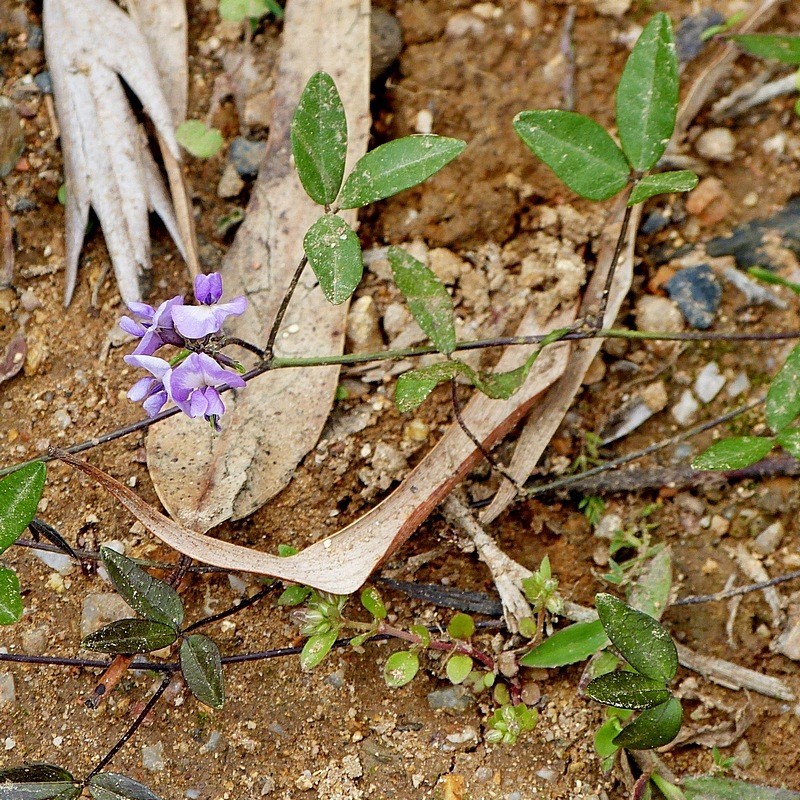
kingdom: Plantae
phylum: Tracheophyta
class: Magnoliopsida
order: Fabales
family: Fabaceae
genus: Glycine
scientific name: Glycine clandestina
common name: Twining glycine
